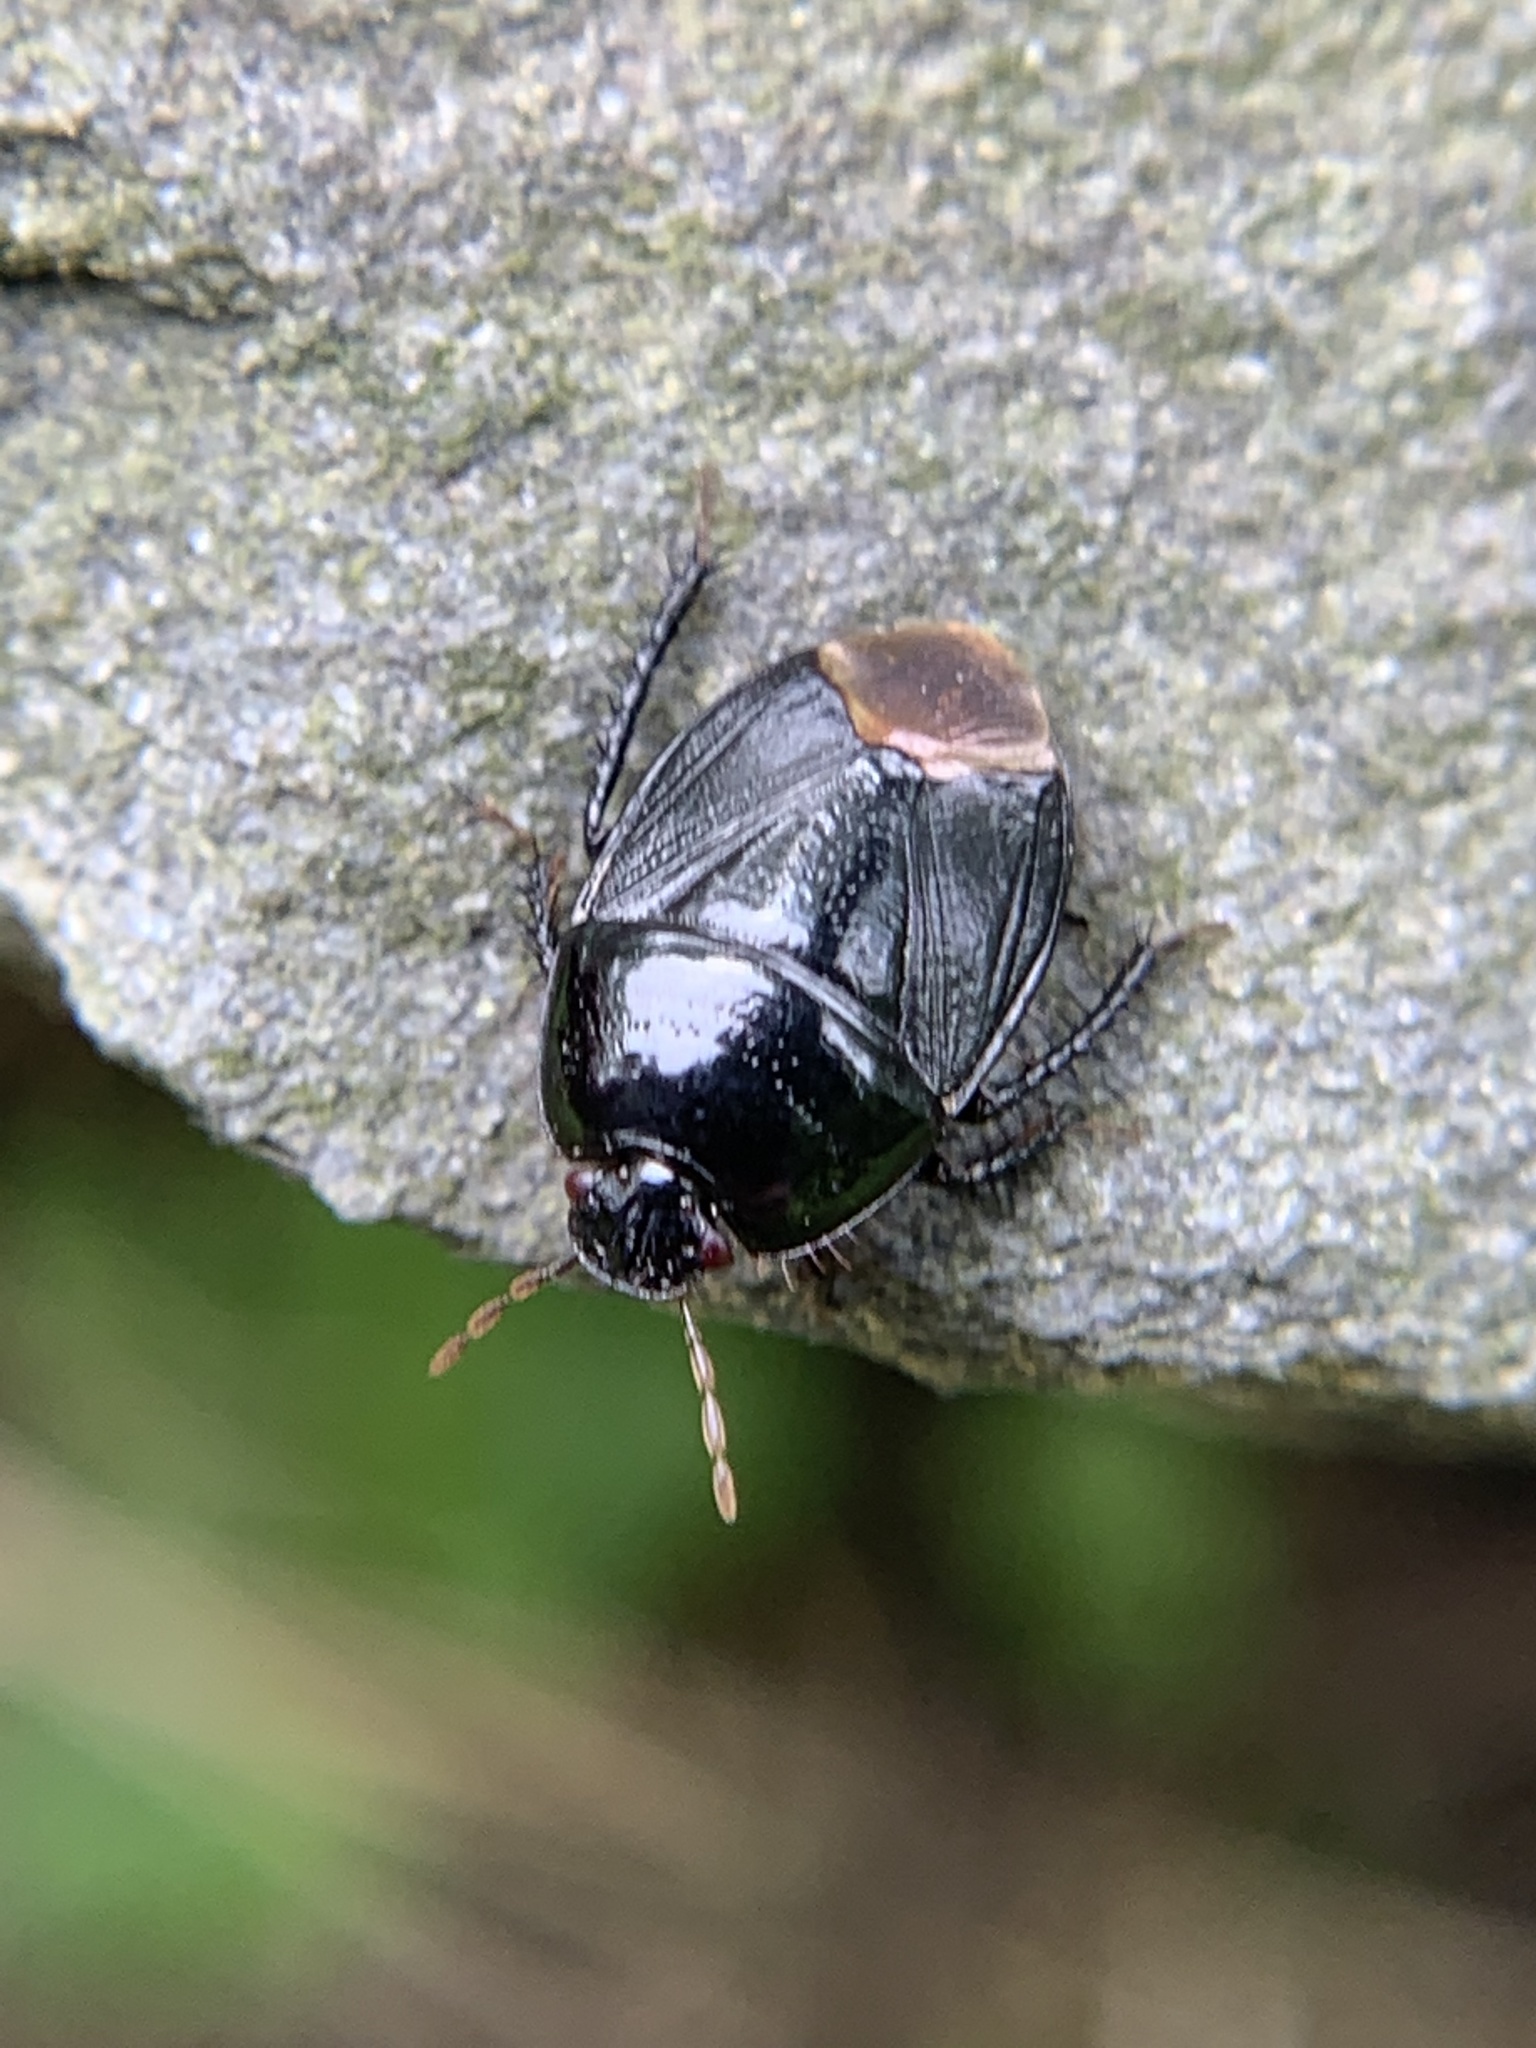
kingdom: Animalia
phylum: Arthropoda
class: Insecta
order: Hemiptera
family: Cydnidae
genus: Pangaeus
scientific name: Pangaeus bilineatus
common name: Burrower bug
